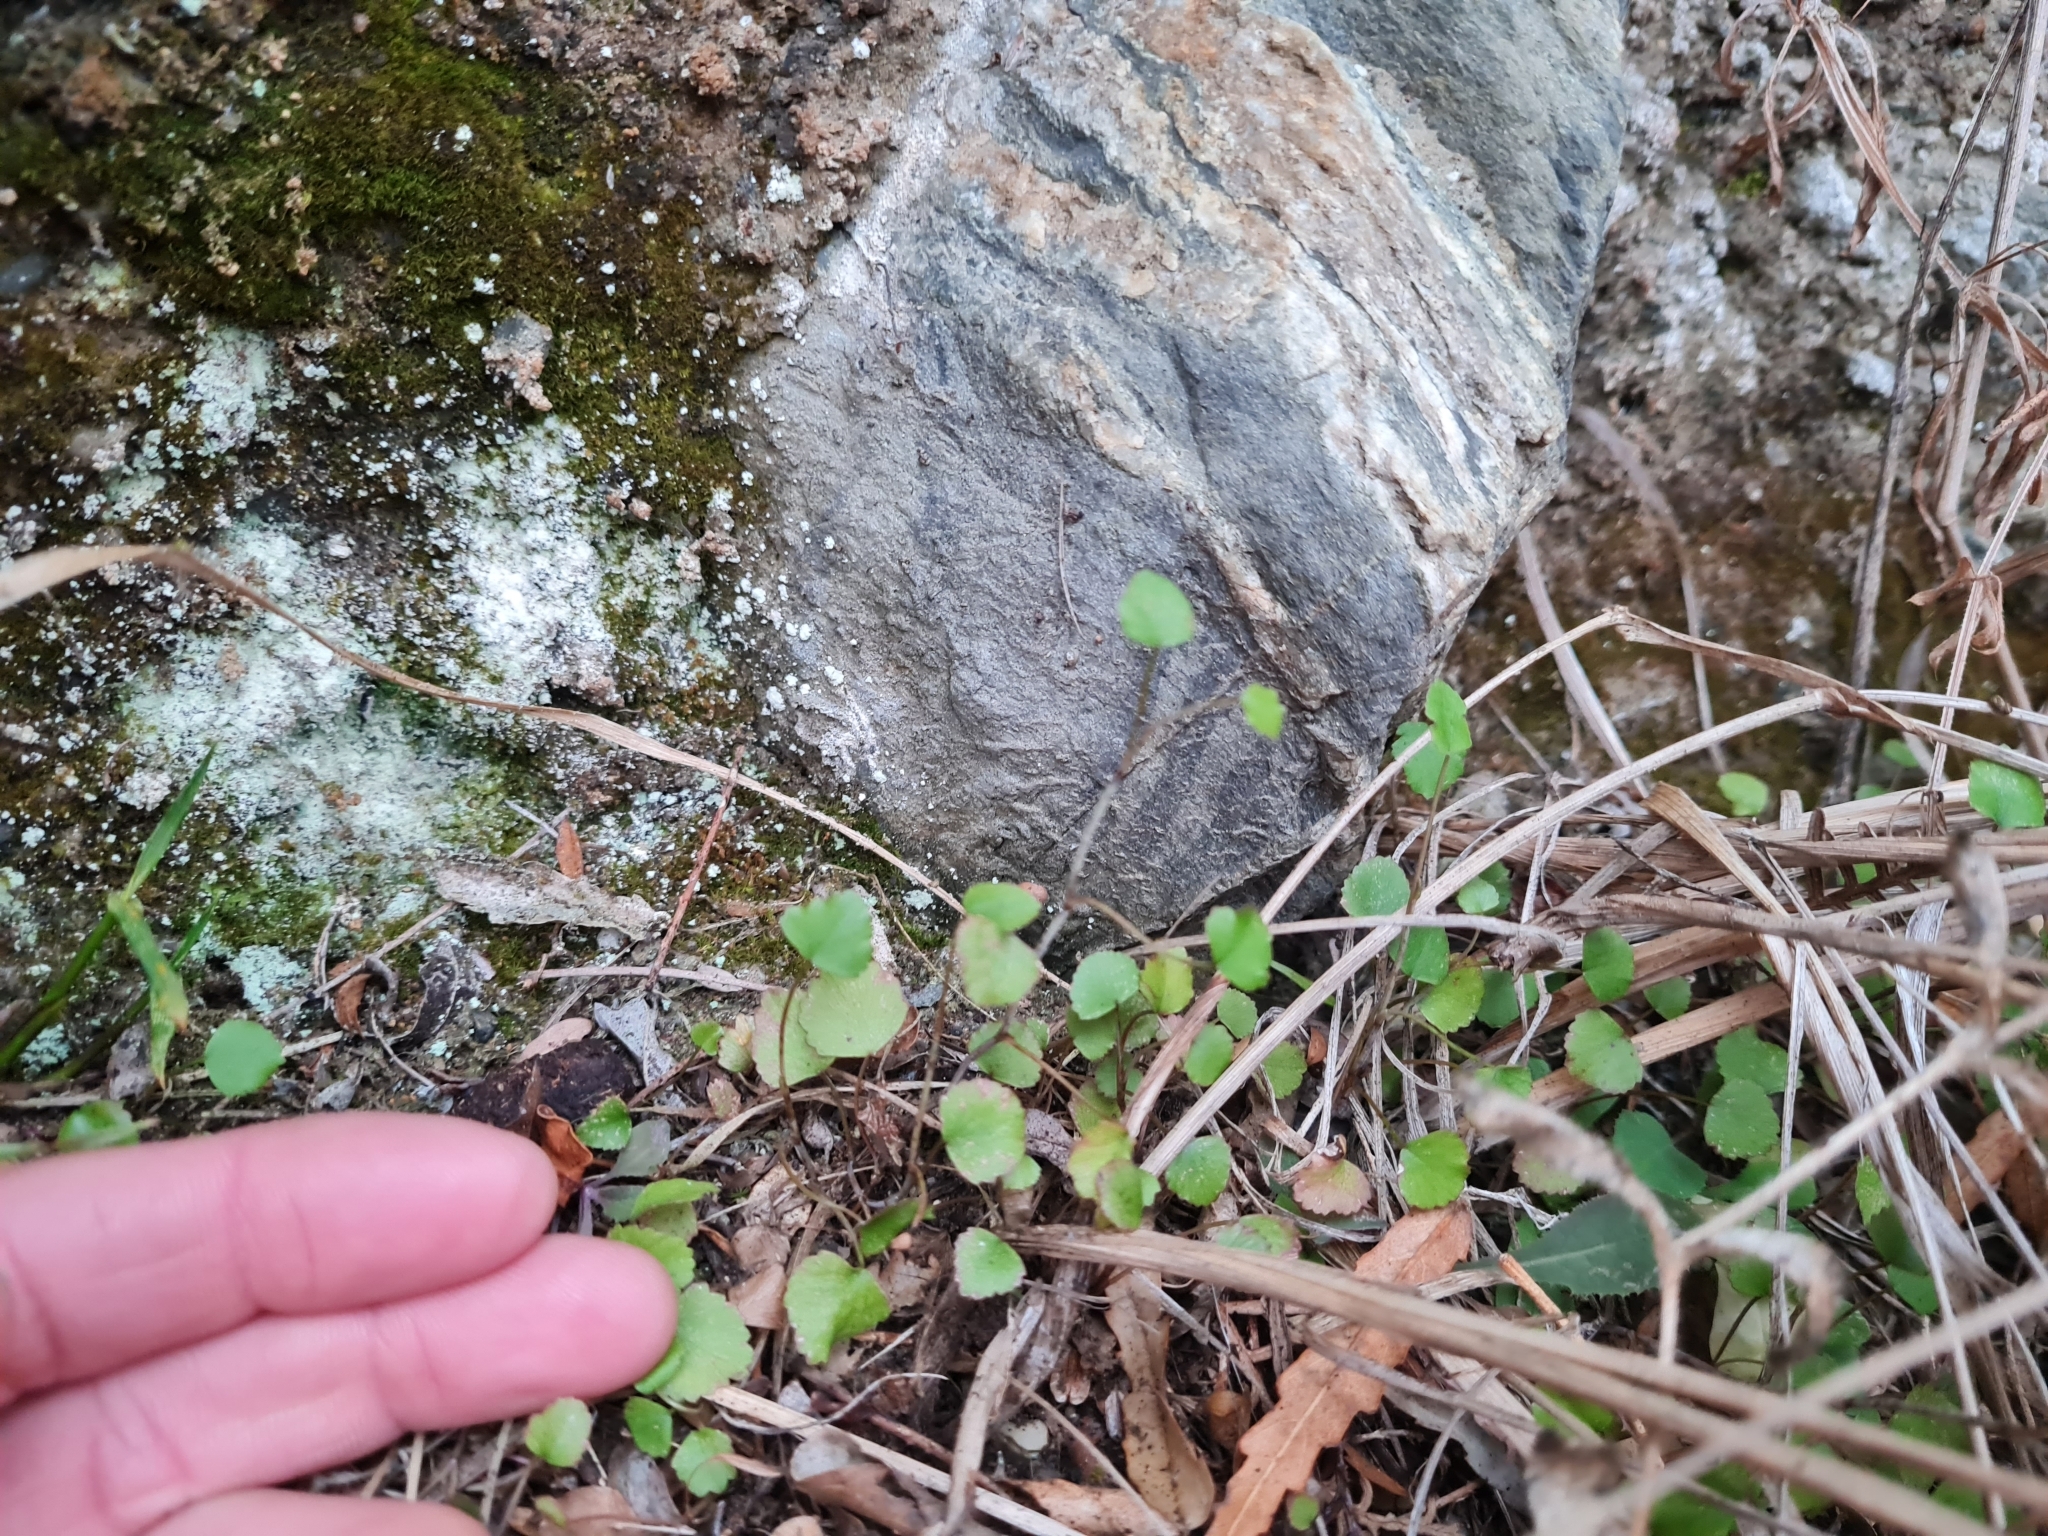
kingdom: Plantae
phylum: Tracheophyta
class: Magnoliopsida
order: Apiales
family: Apiaceae
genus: Scandia
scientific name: Scandia geniculata
